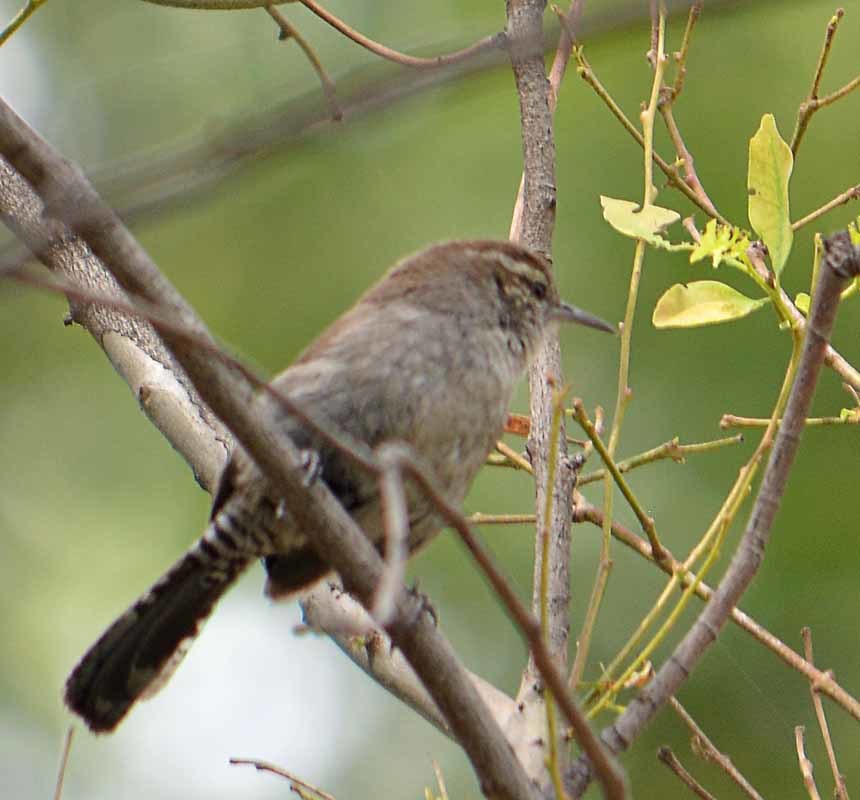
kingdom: Animalia
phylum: Chordata
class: Aves
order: Passeriformes
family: Troglodytidae
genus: Thryomanes
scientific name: Thryomanes bewickii
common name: Bewick's wren
